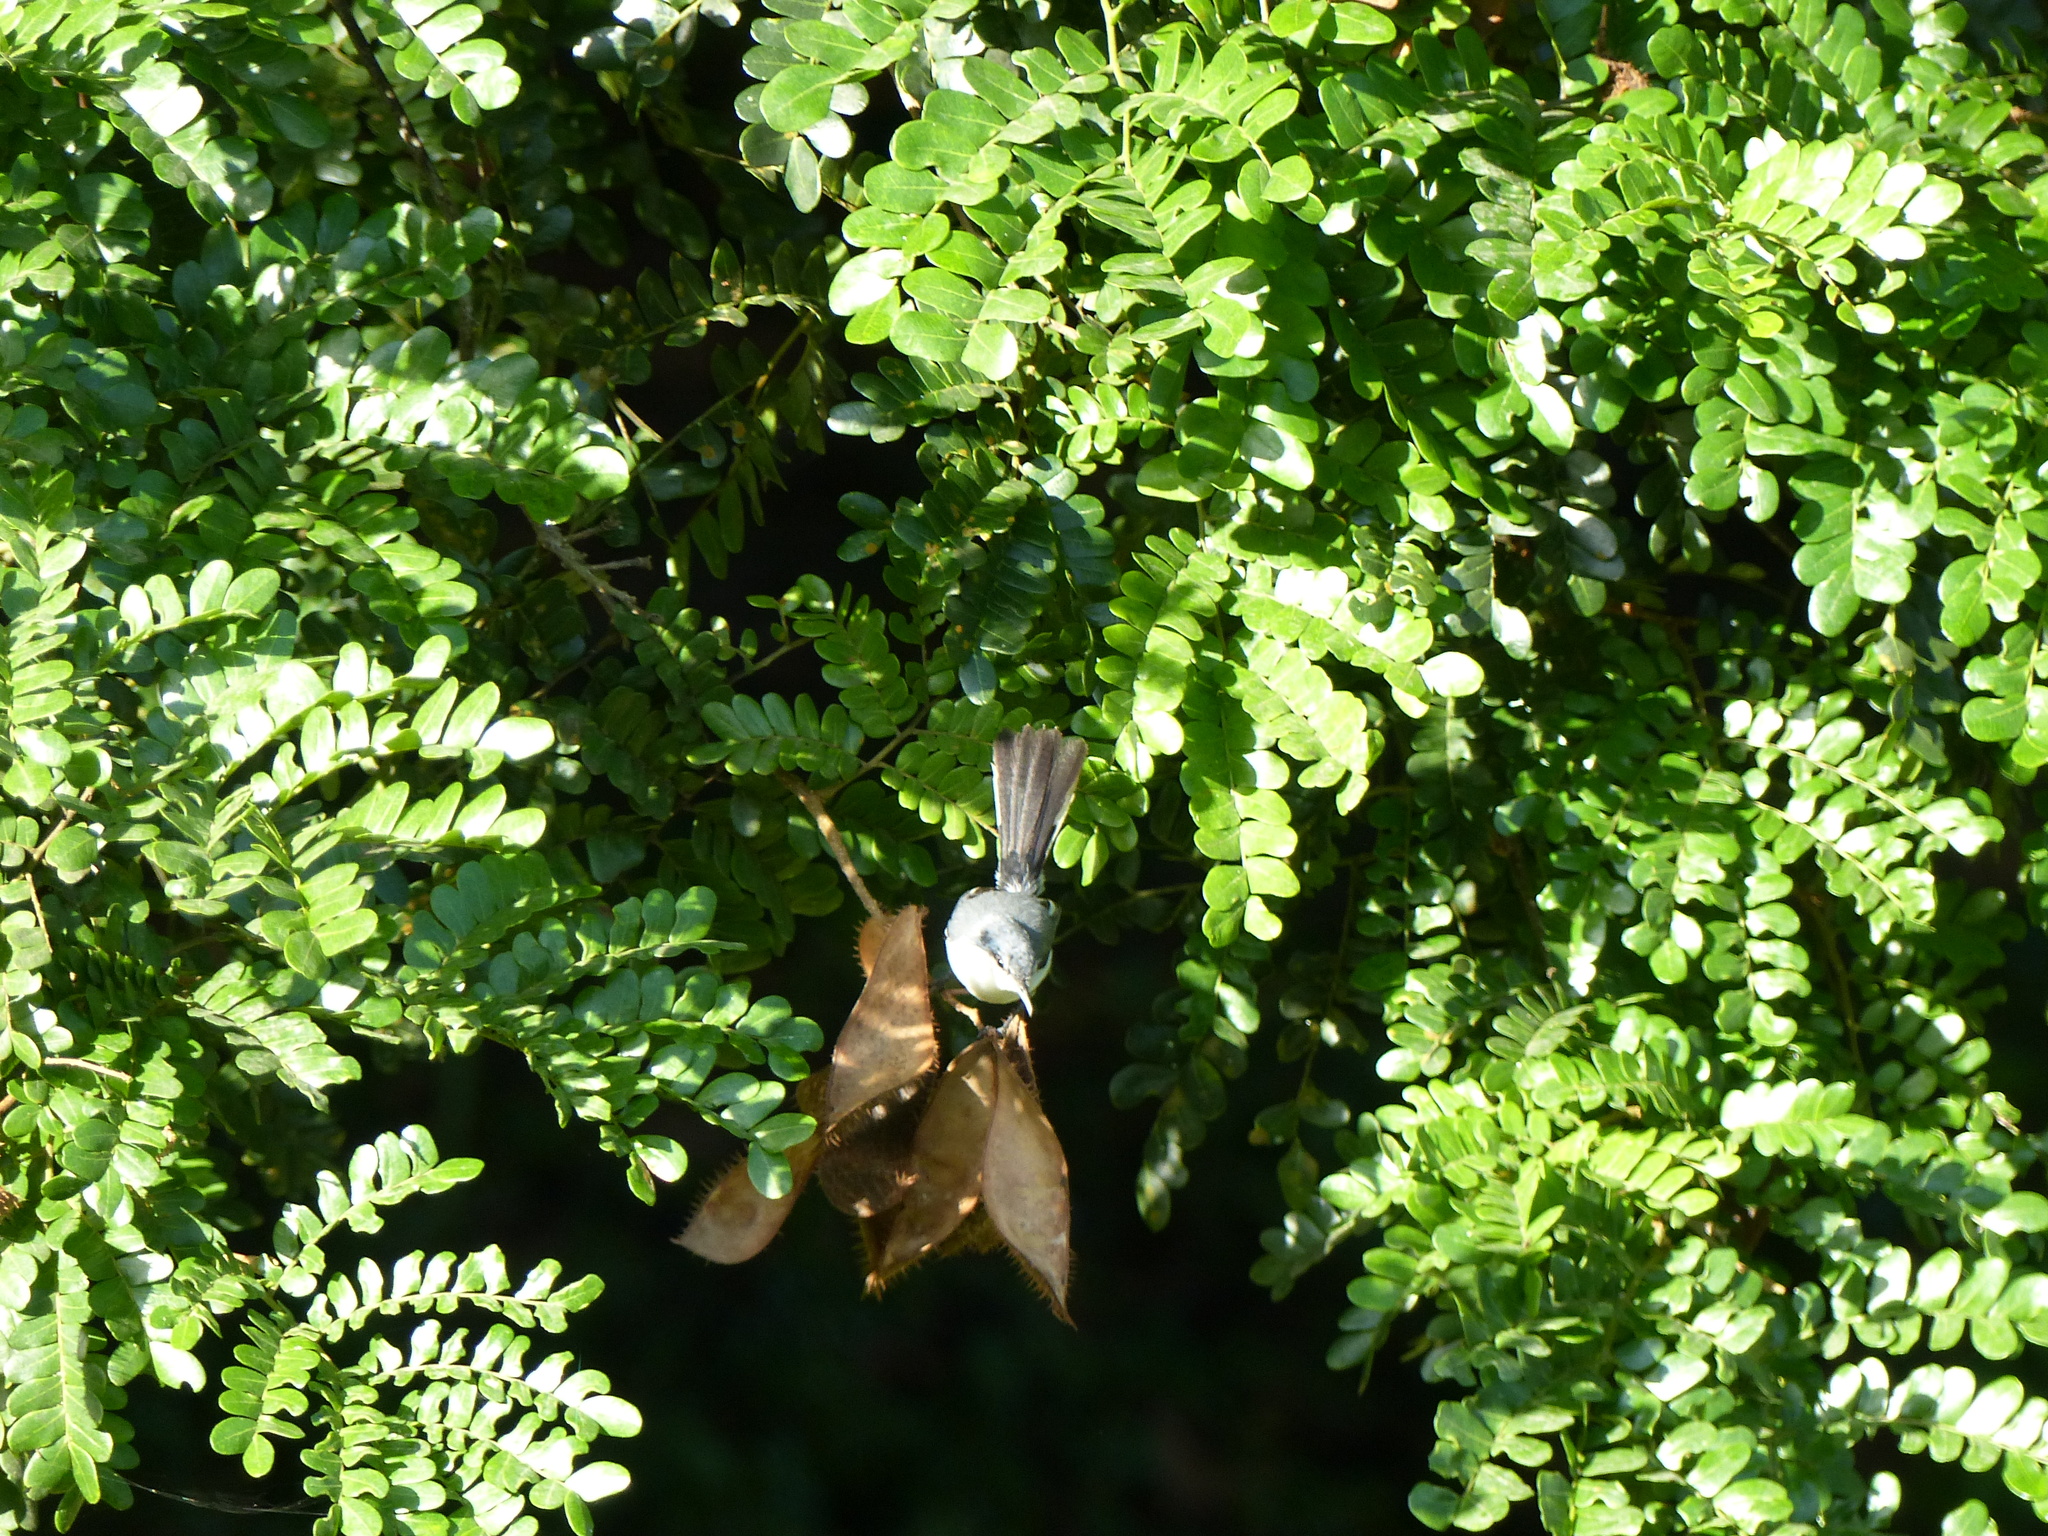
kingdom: Animalia
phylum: Chordata
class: Aves
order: Passeriformes
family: Polioptilidae
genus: Polioptila
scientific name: Polioptila plumbea
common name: Tropical gnatcatcher
